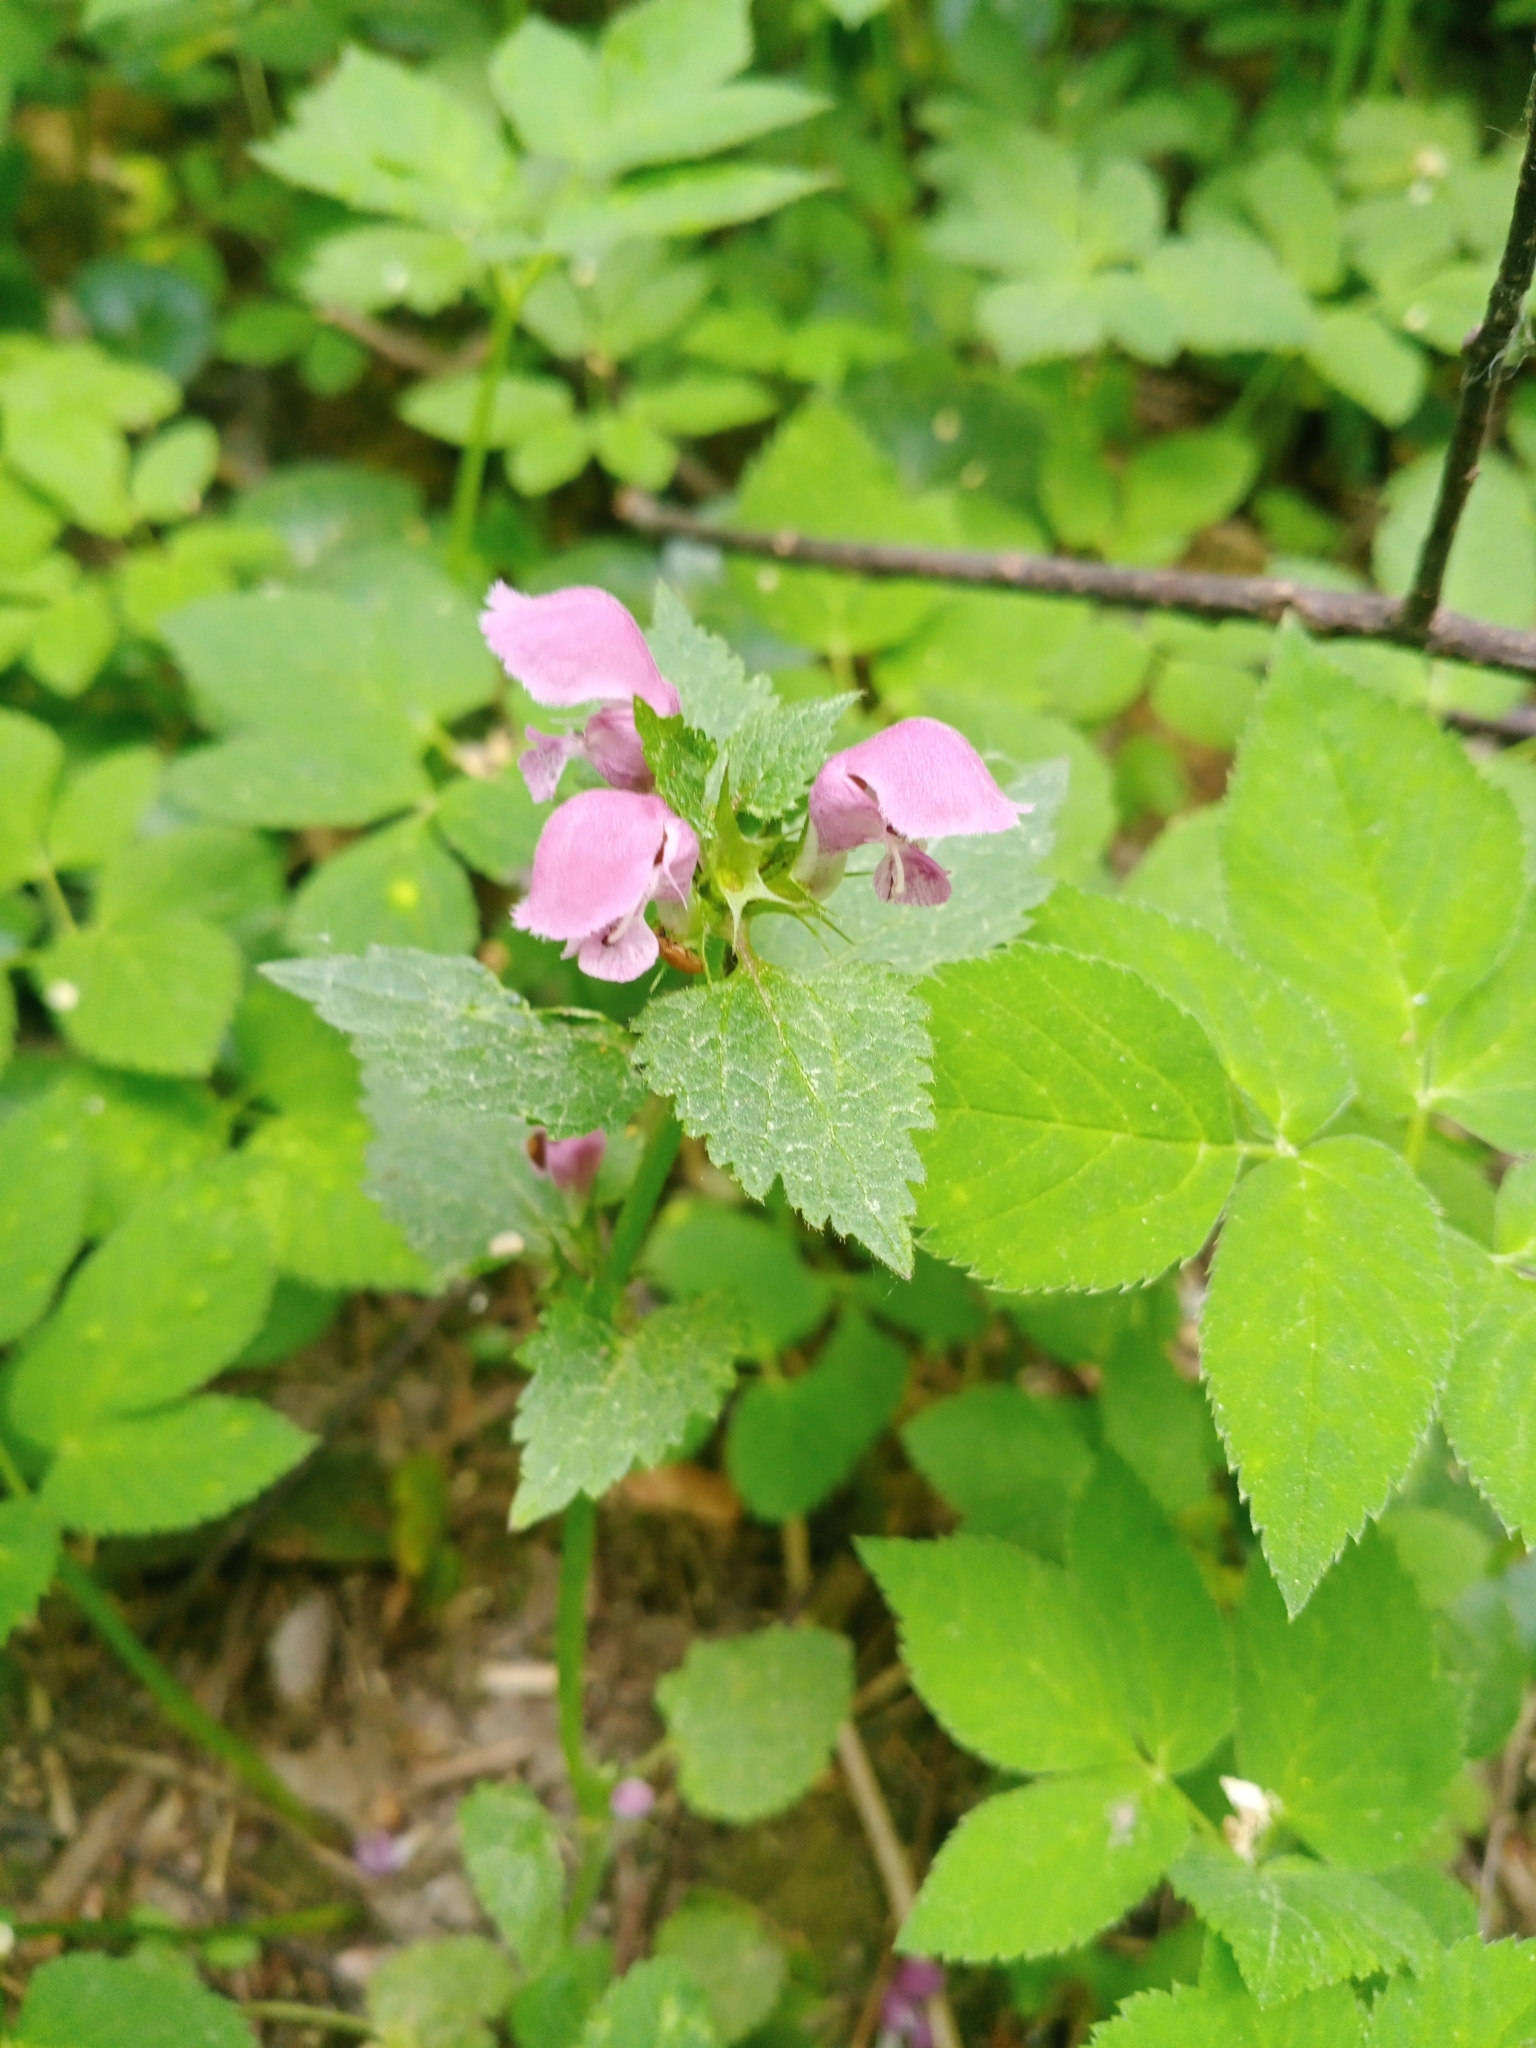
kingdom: Plantae
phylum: Tracheophyta
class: Magnoliopsida
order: Lamiales
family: Lamiaceae
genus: Lamium
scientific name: Lamium maculatum
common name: Spotted dead-nettle
